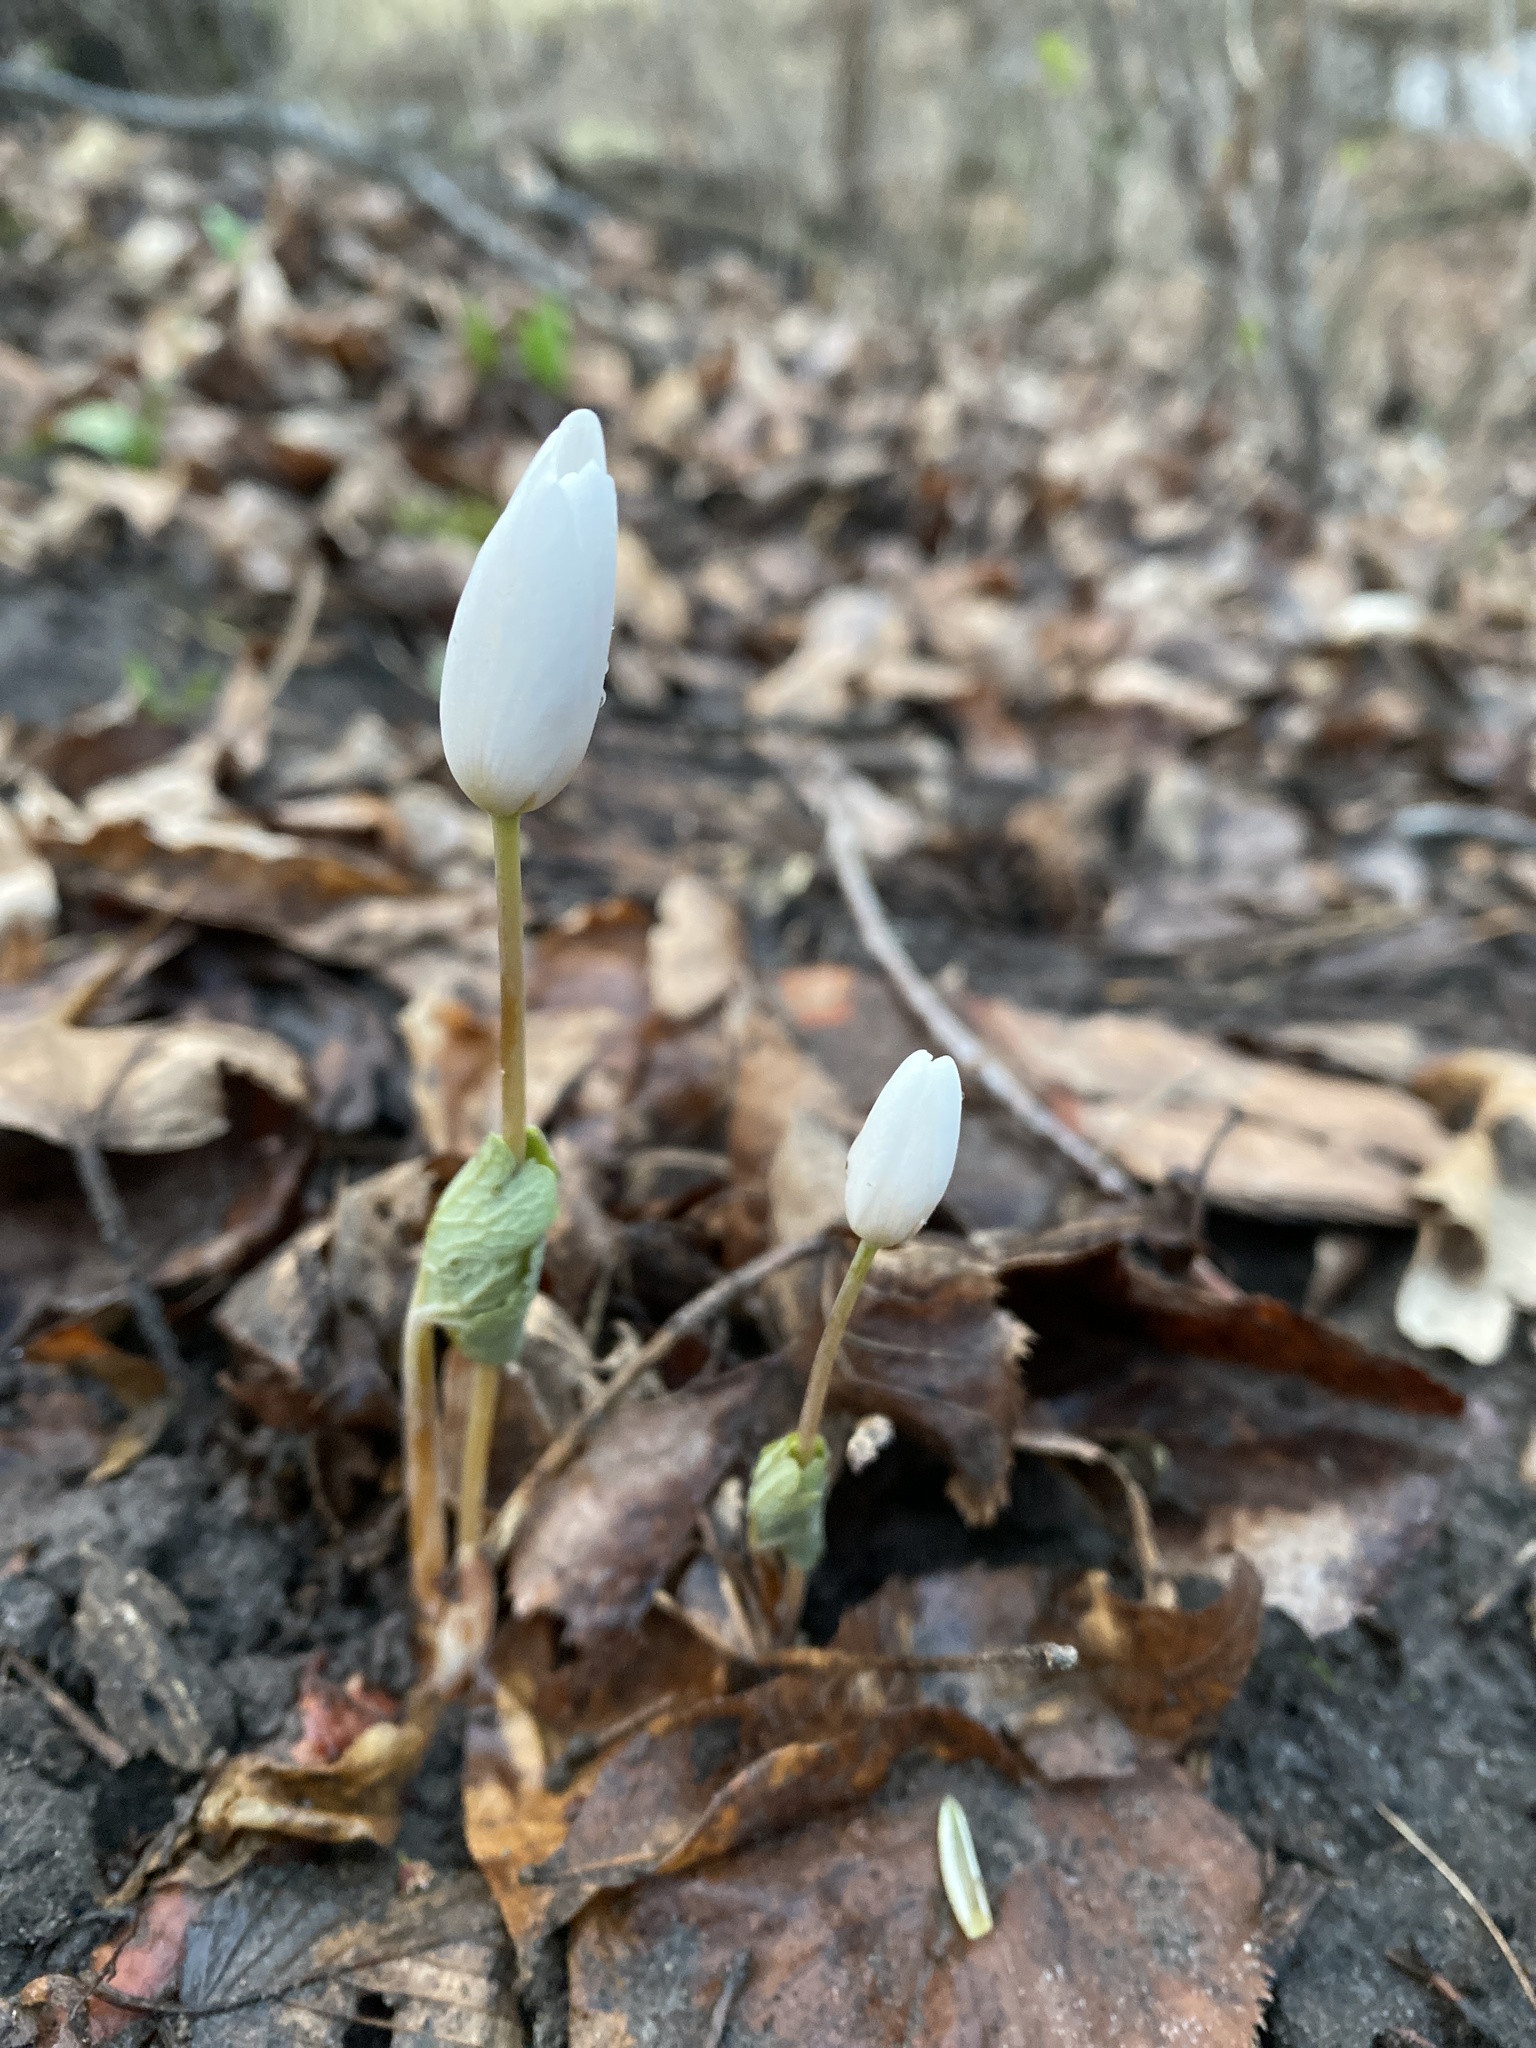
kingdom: Plantae
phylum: Tracheophyta
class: Magnoliopsida
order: Ranunculales
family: Papaveraceae
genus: Sanguinaria
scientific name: Sanguinaria canadensis
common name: Bloodroot
